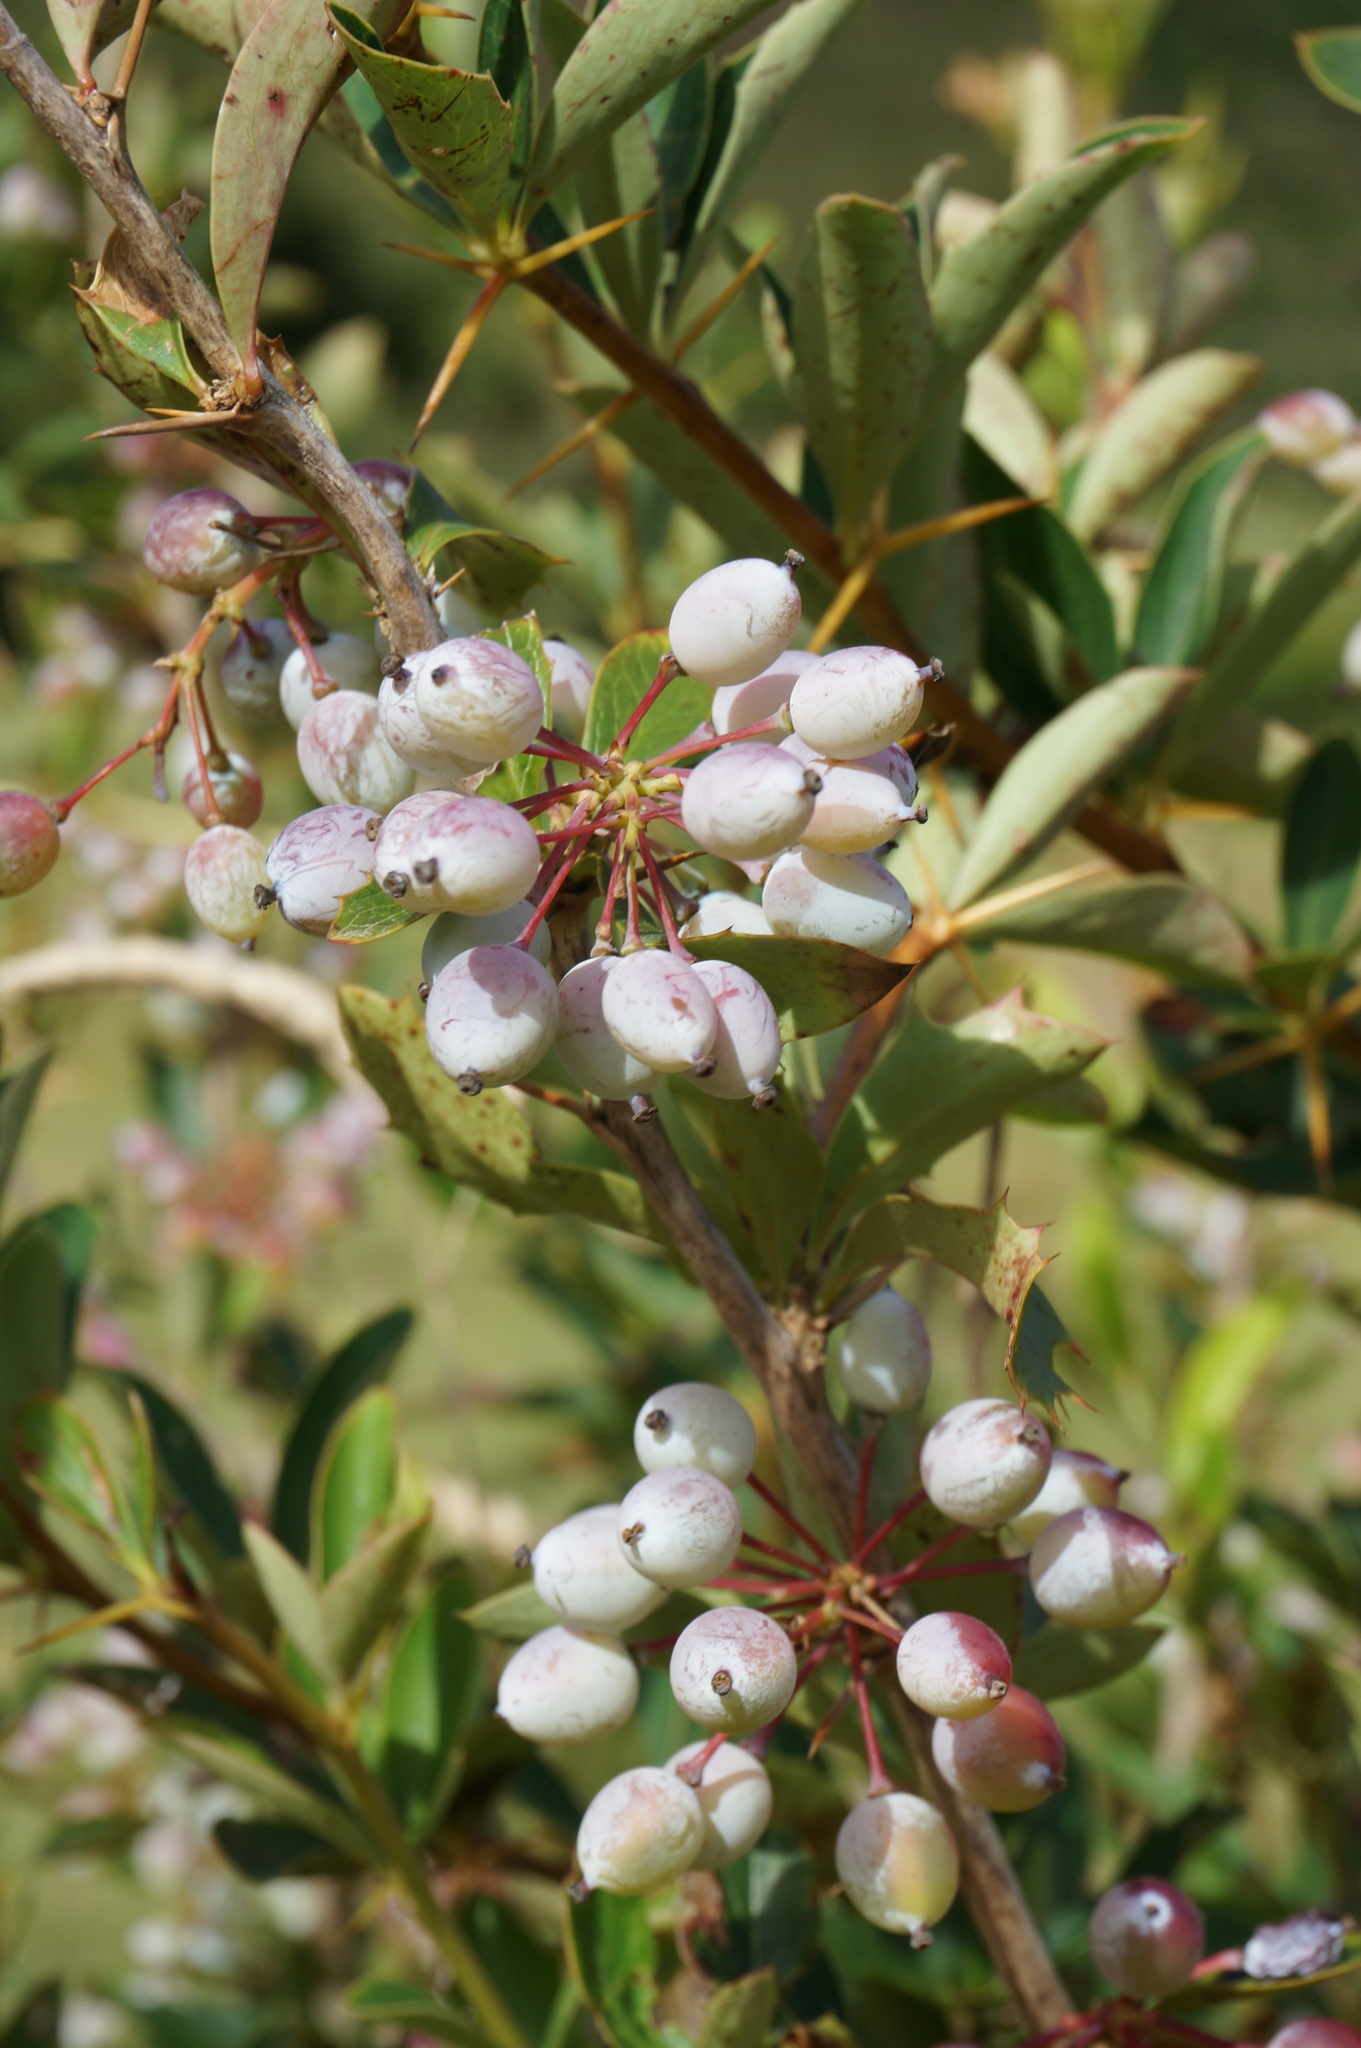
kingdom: Plantae
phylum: Tracheophyta
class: Magnoliopsida
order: Ranunculales
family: Berberidaceae
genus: Berberis
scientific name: Berberis glaucocarpa
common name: Great barberry
